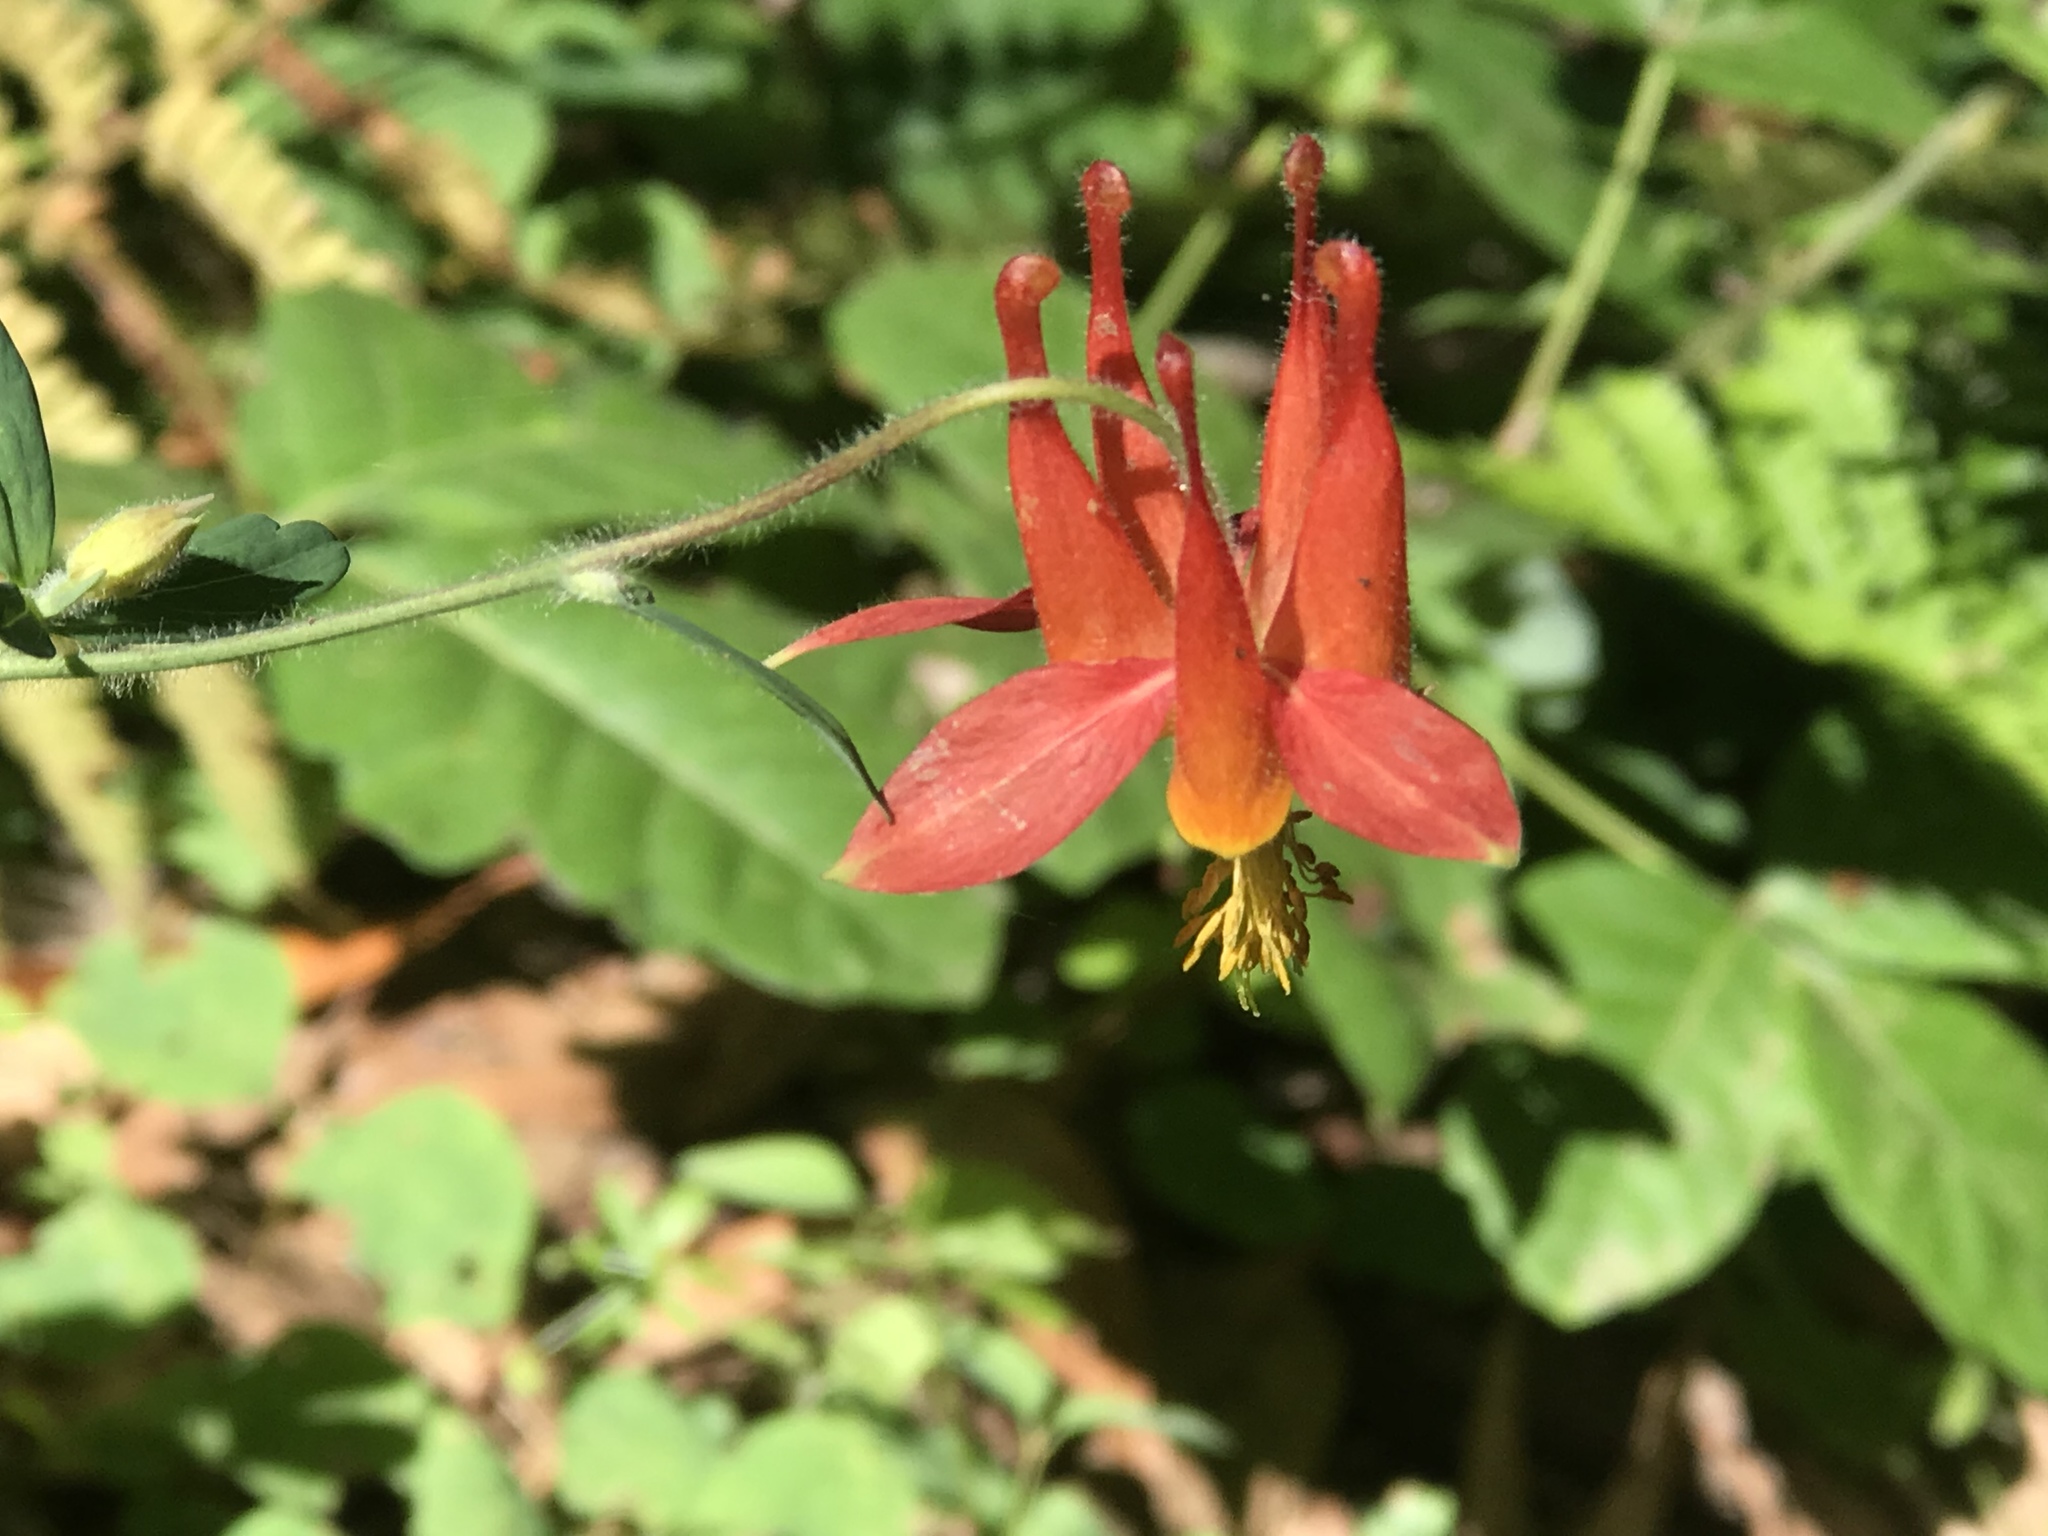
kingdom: Plantae
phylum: Tracheophyta
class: Magnoliopsida
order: Ranunculales
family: Ranunculaceae
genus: Aquilegia
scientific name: Aquilegia formosa
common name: Sitka columbine
